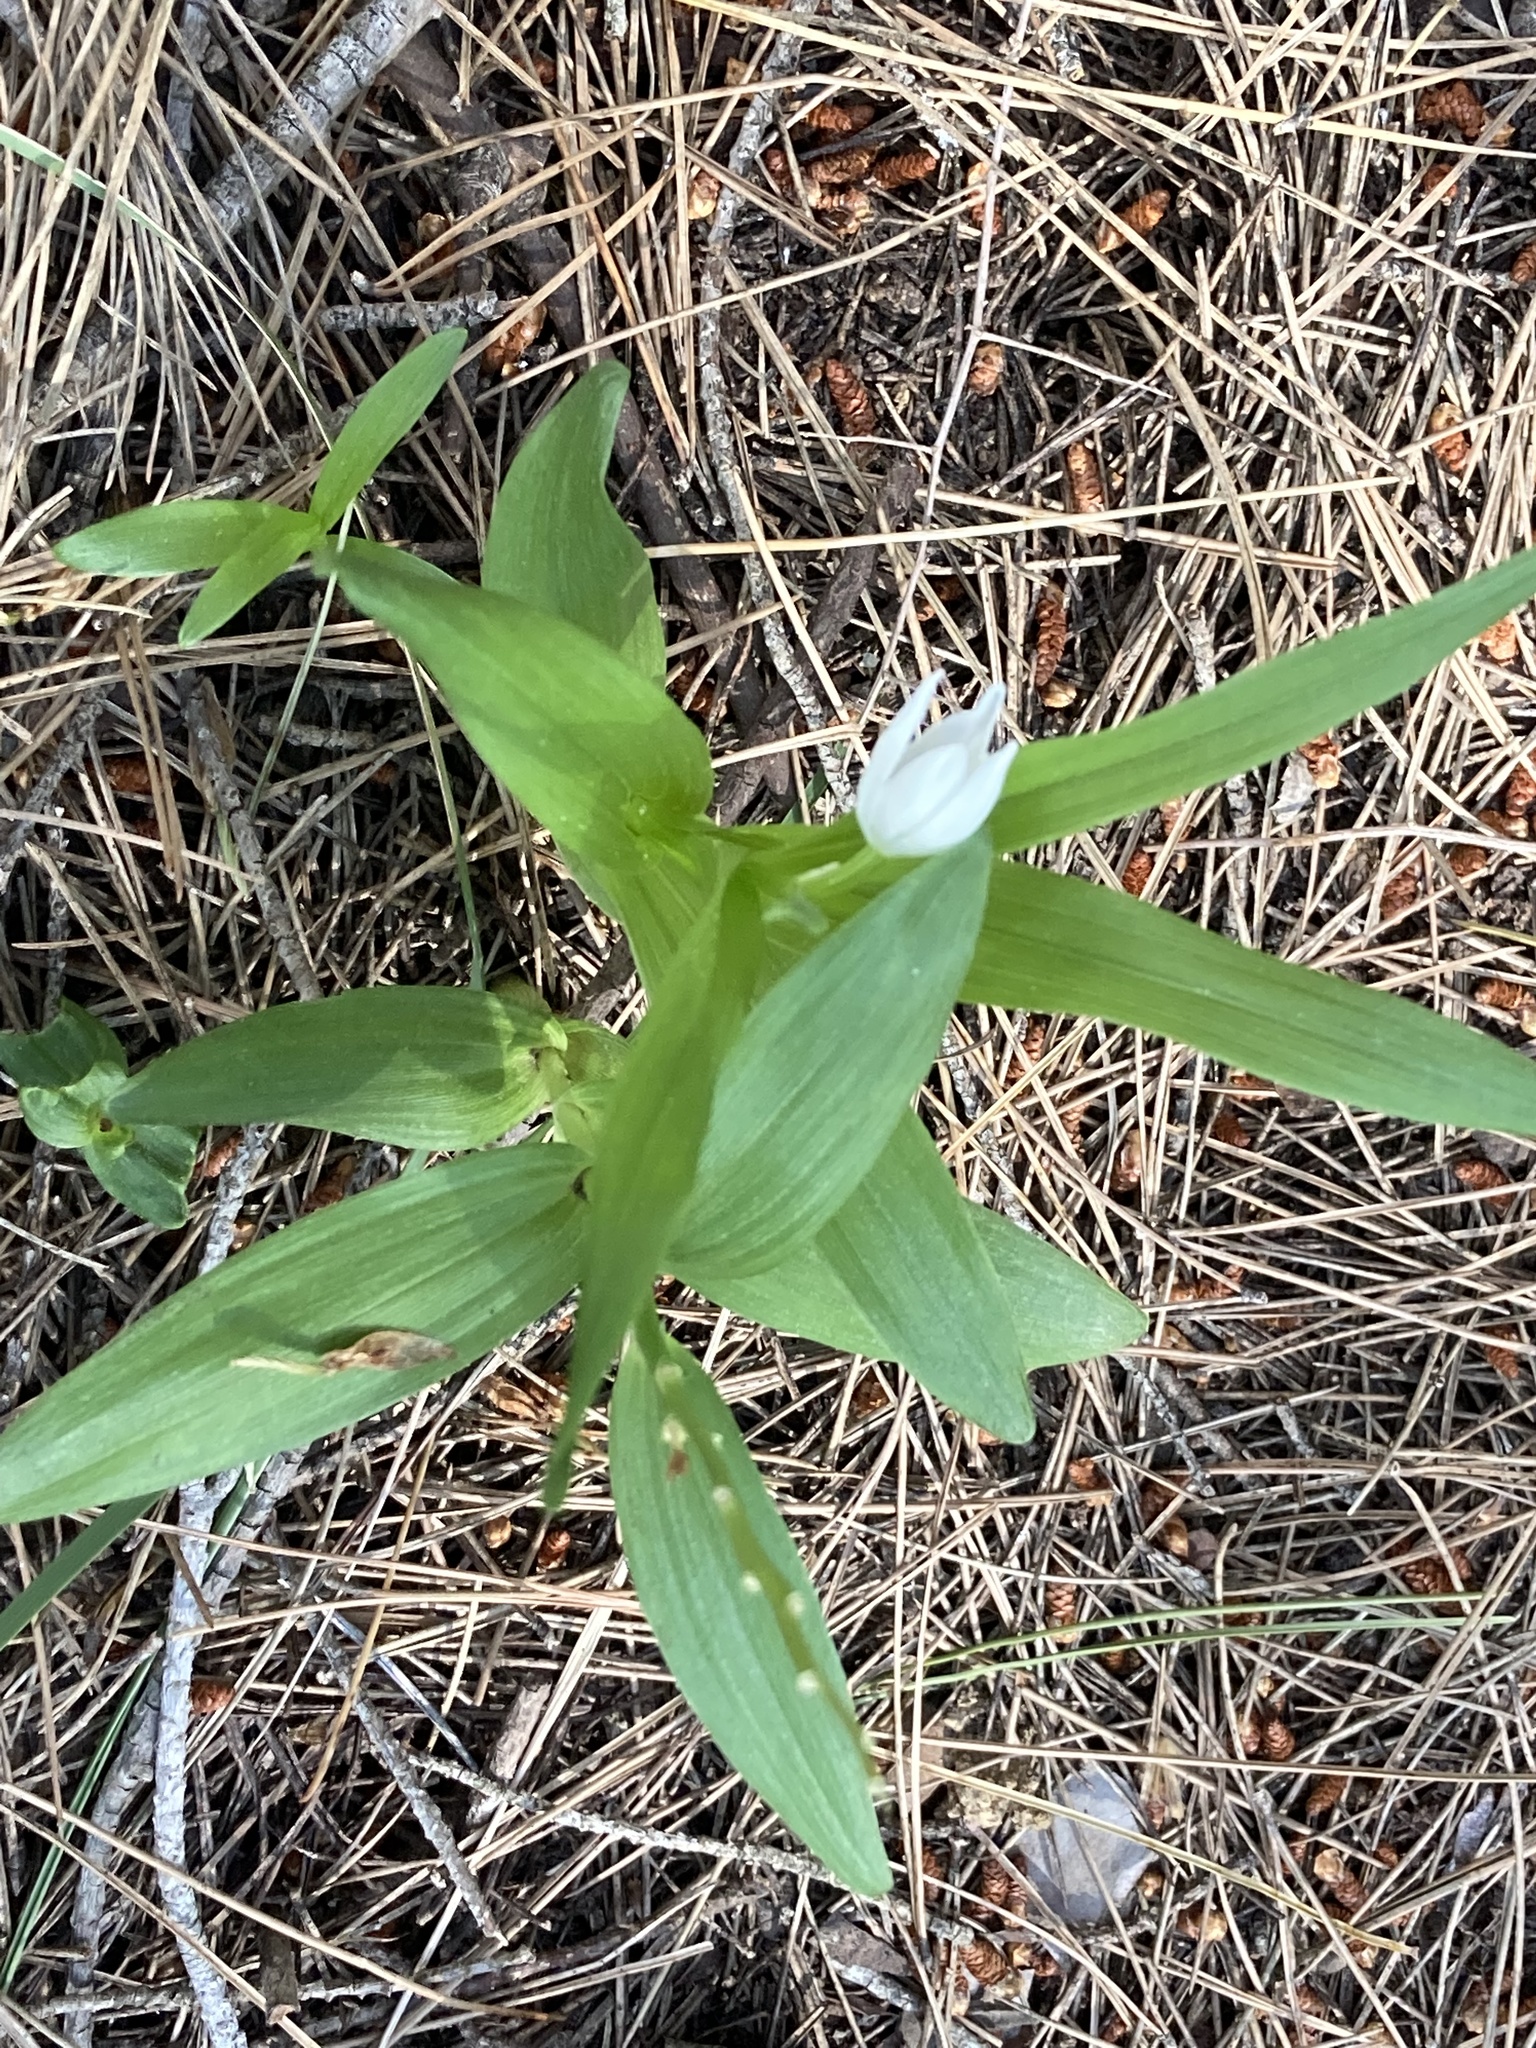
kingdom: Plantae
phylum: Tracheophyta
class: Liliopsida
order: Asparagales
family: Orchidaceae
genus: Cephalanthera
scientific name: Cephalanthera longifolia
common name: Narrow-leaved helleborine
